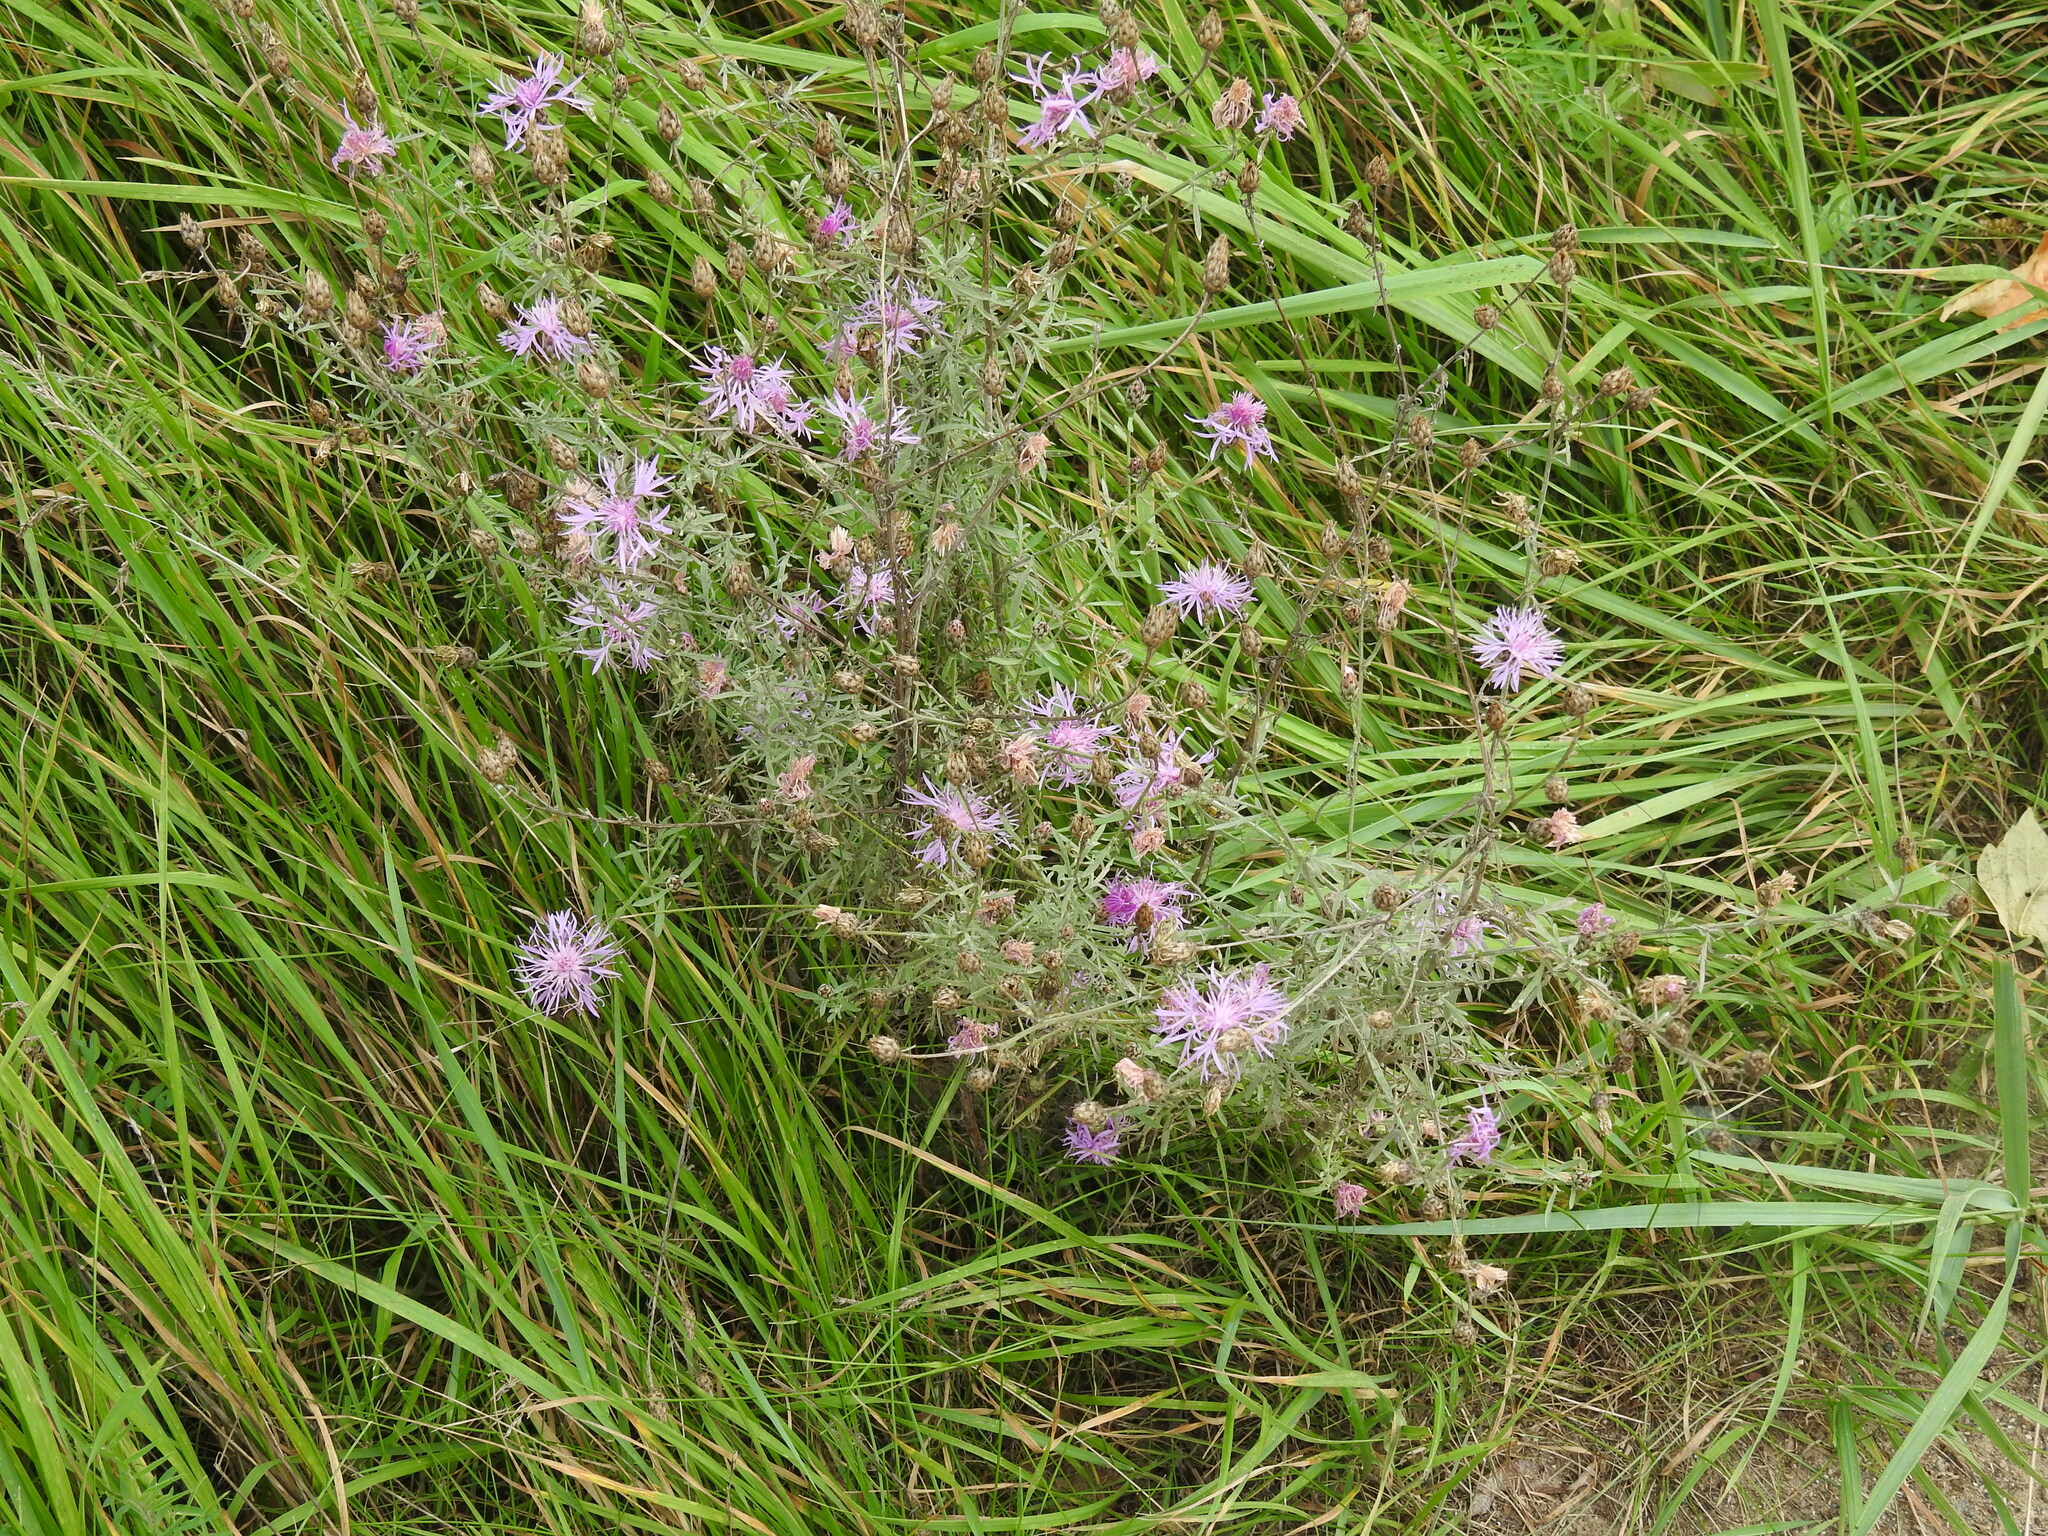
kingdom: Plantae
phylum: Tracheophyta
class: Magnoliopsida
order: Asterales
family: Asteraceae
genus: Centaurea
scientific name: Centaurea stoebe
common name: Spotted knapweed
